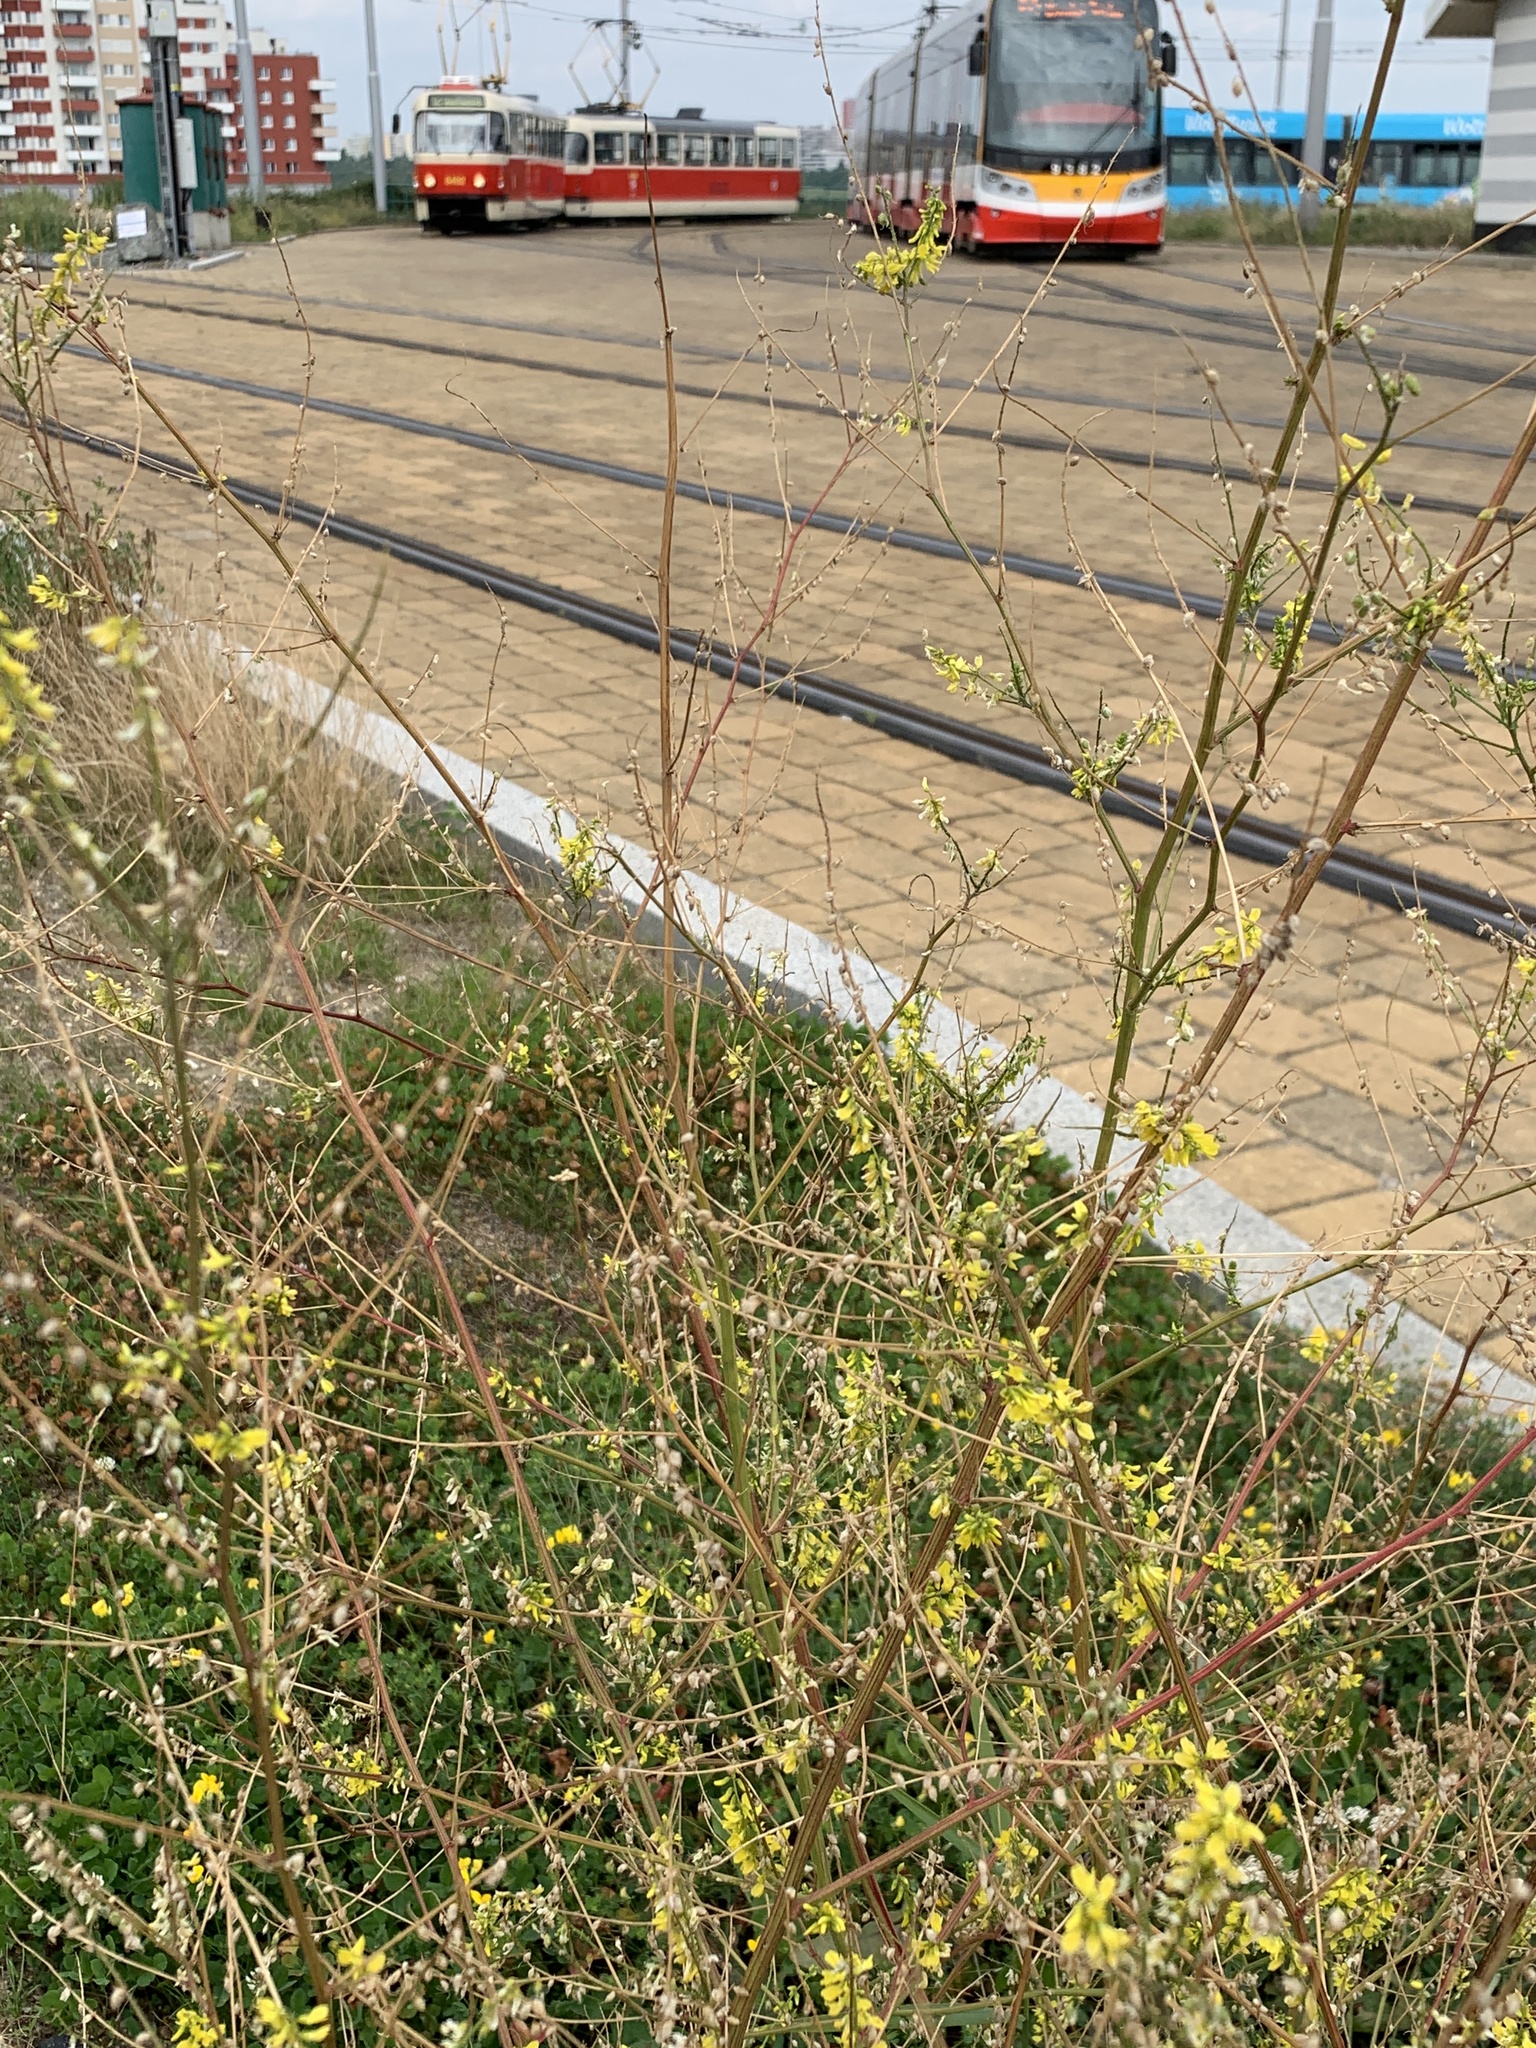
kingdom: Plantae
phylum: Tracheophyta
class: Magnoliopsida
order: Fabales
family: Fabaceae
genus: Melilotus
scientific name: Melilotus officinalis
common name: Sweetclover
